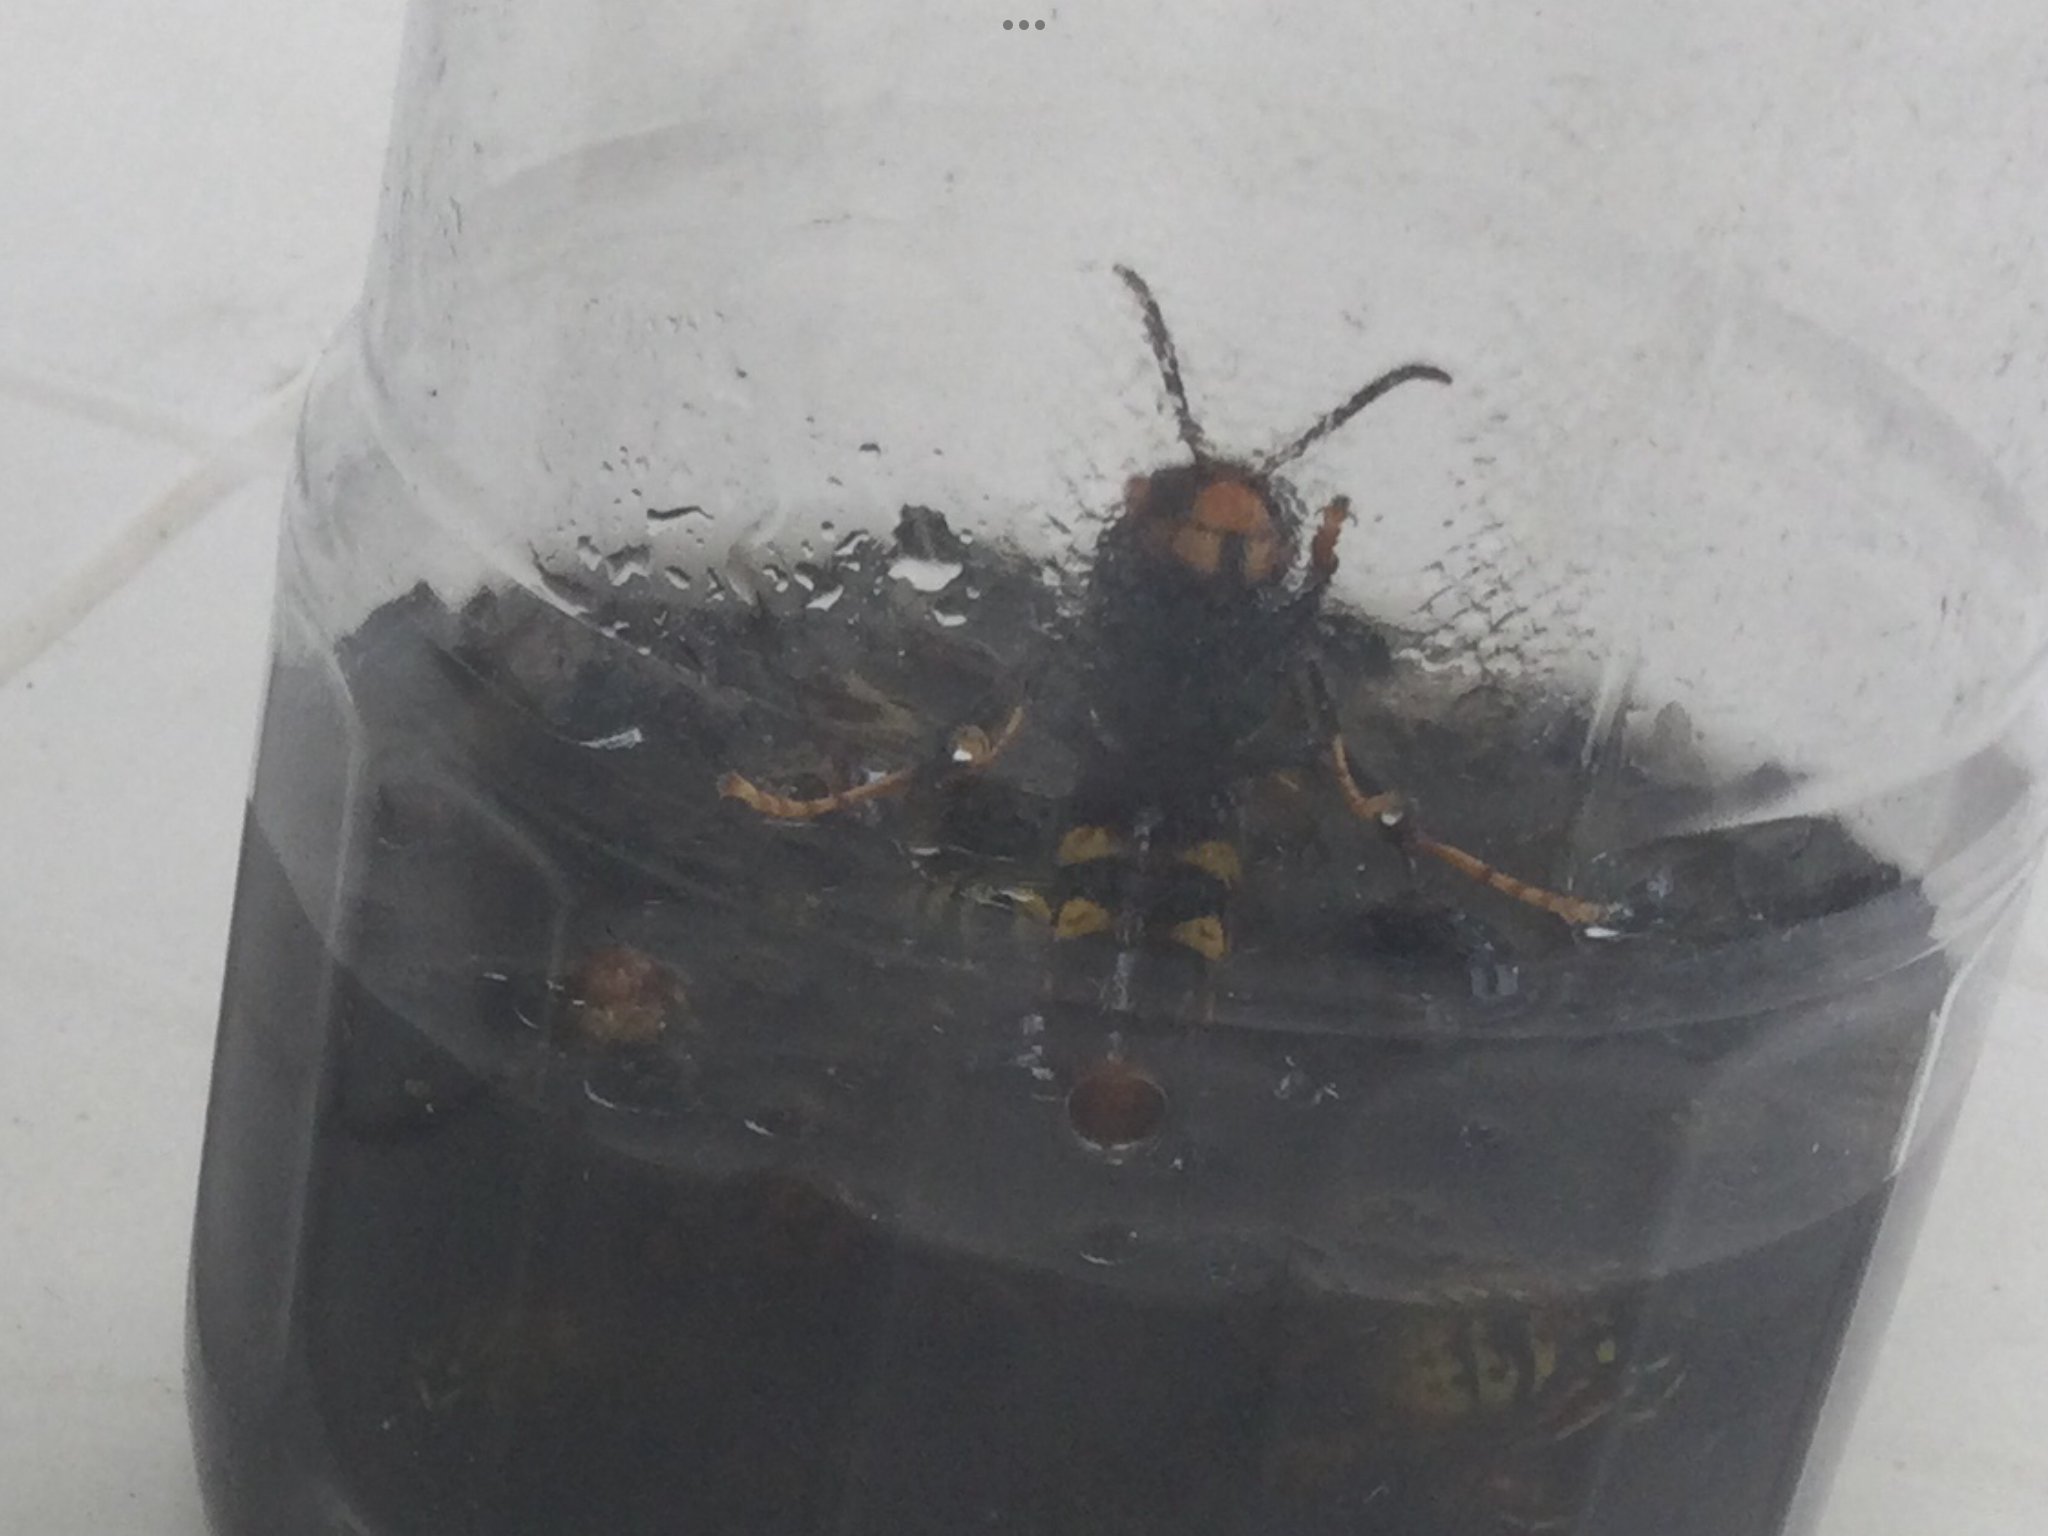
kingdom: Animalia
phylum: Arthropoda
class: Insecta
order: Hymenoptera
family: Vespidae
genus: Vespa
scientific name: Vespa velutina
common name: Asian hornet
